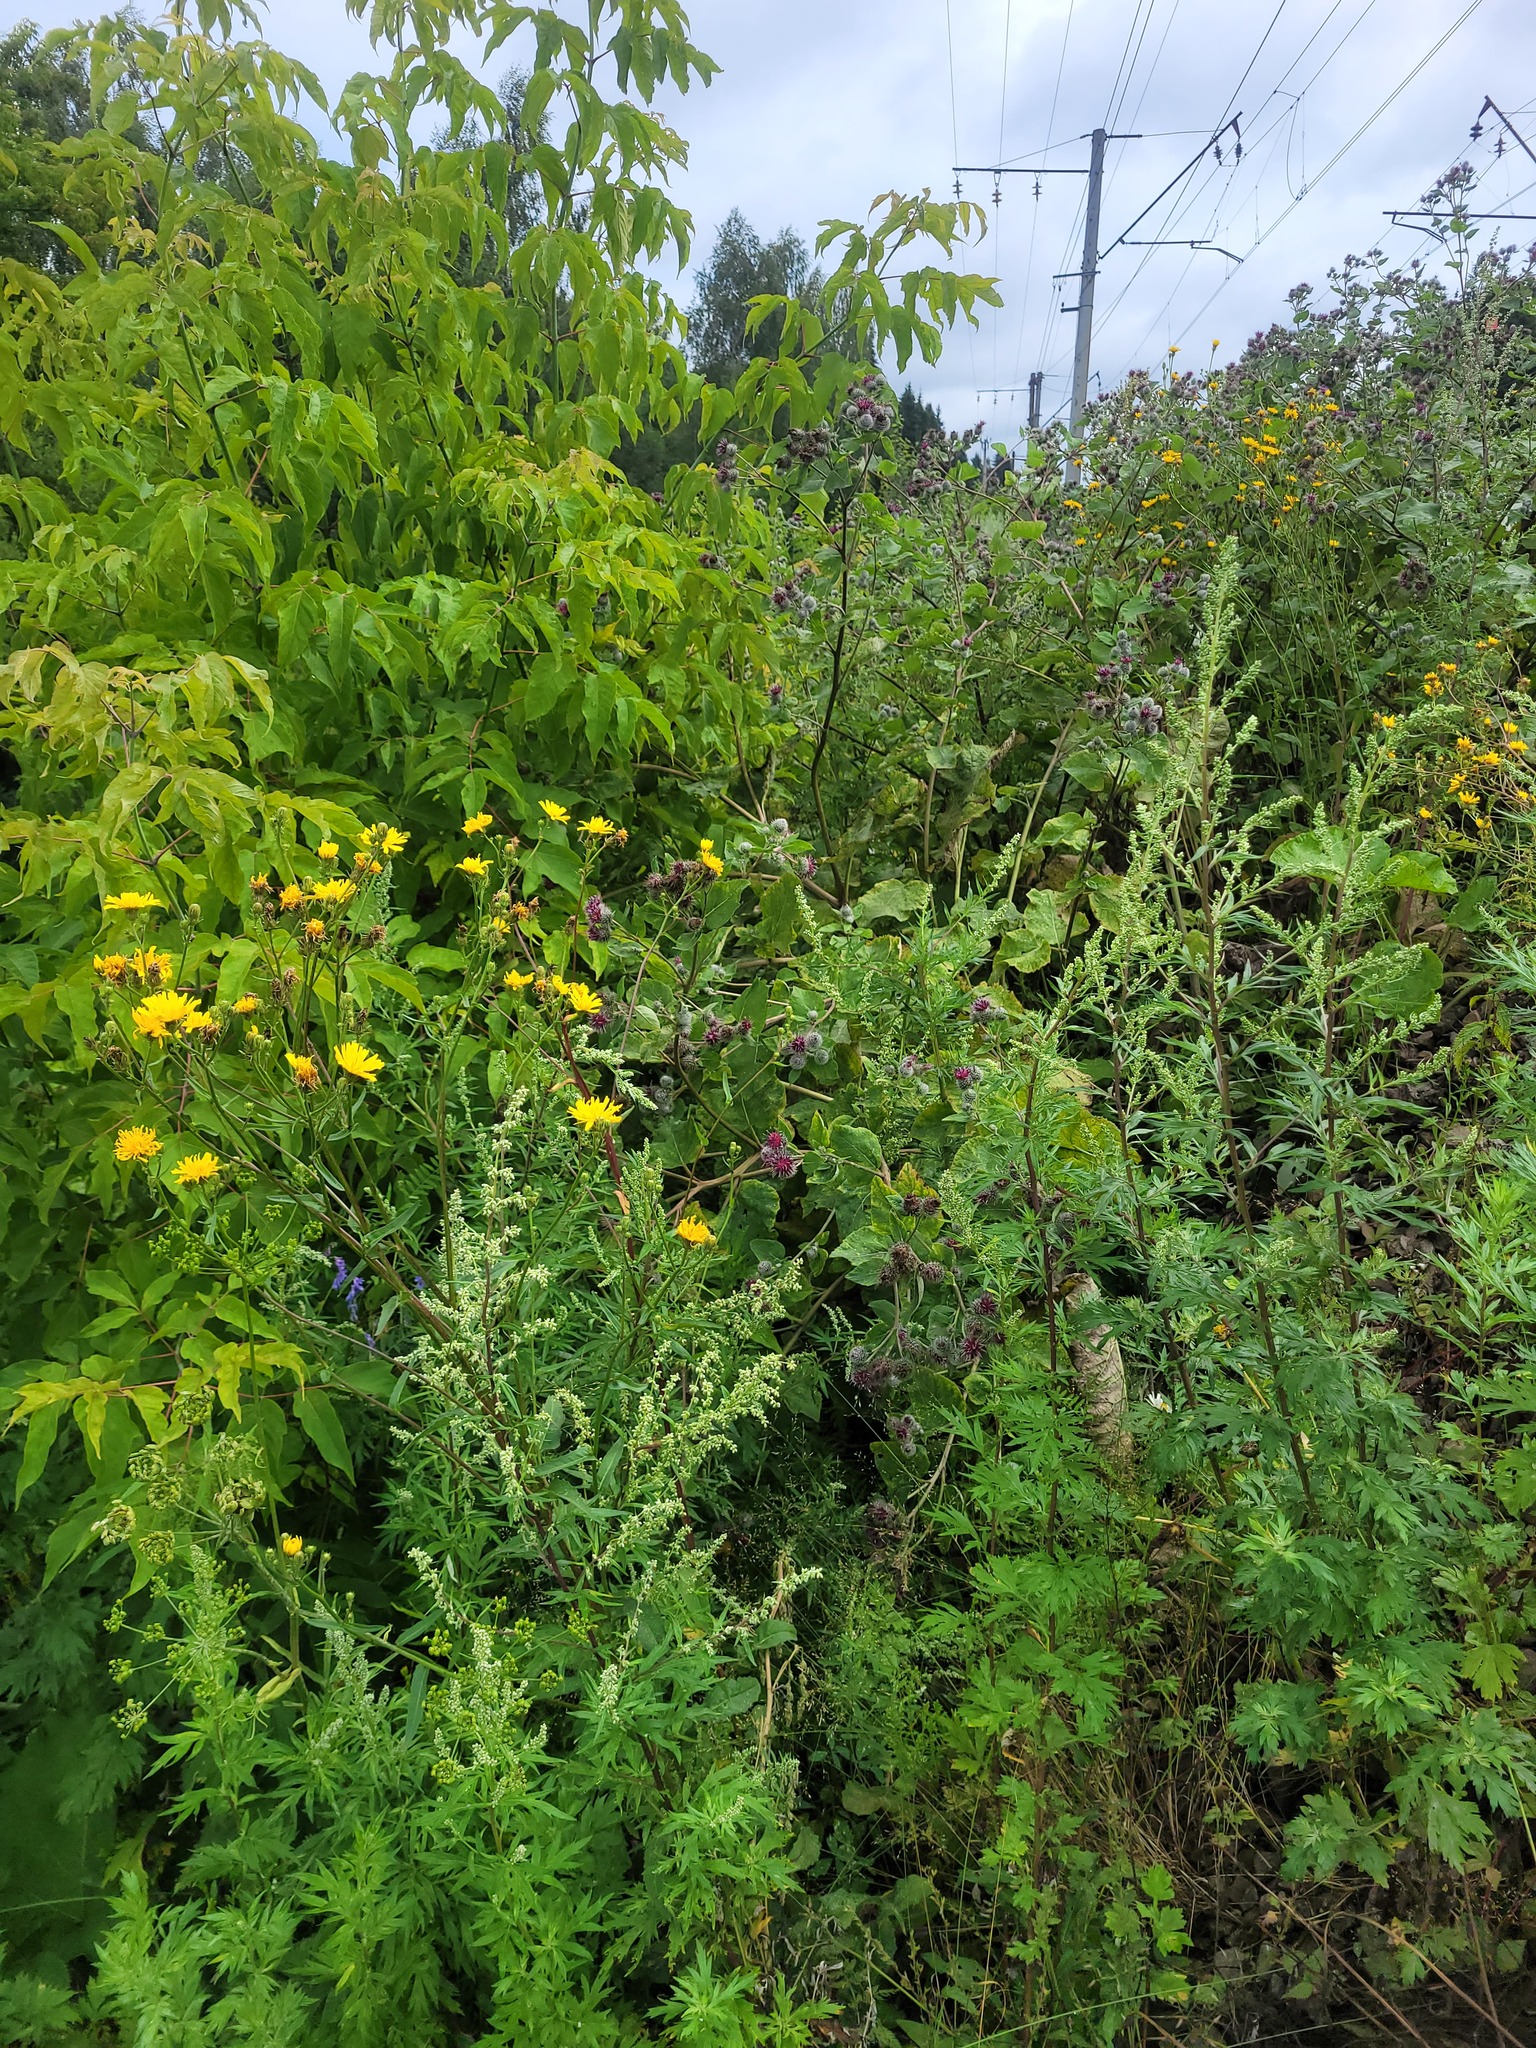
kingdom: Plantae
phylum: Tracheophyta
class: Magnoliopsida
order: Asterales
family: Asteraceae
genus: Arctium
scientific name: Arctium tomentosum
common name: Woolly burdock
